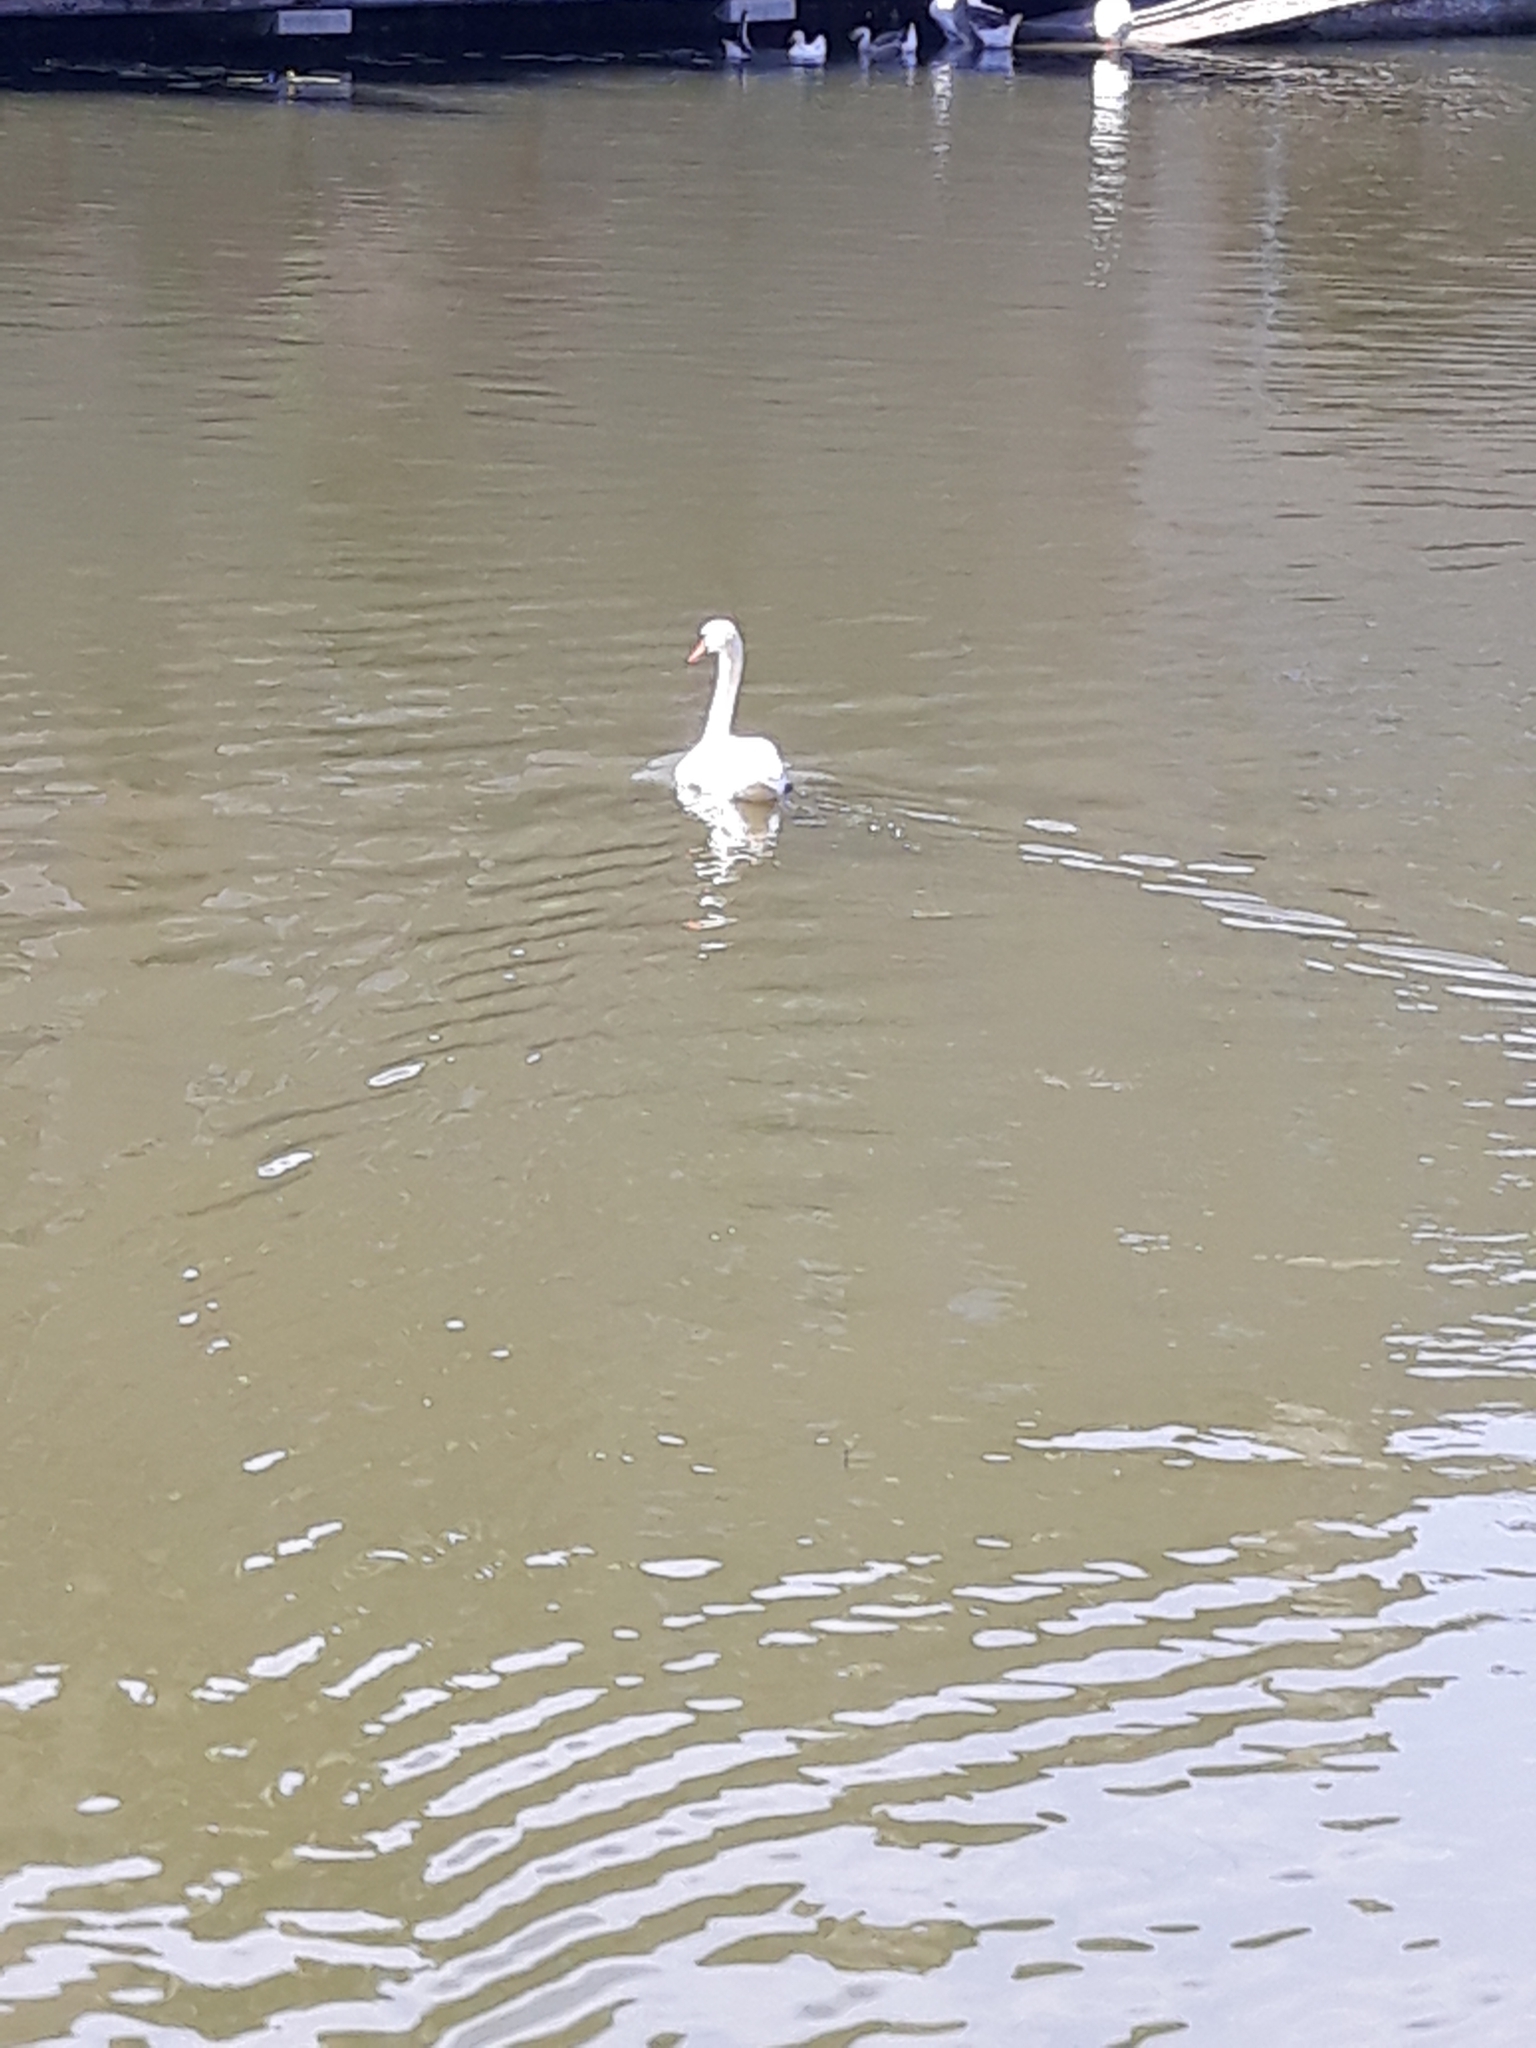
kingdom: Animalia
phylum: Chordata
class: Aves
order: Anseriformes
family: Anatidae
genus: Cygnus
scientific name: Cygnus olor
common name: Mute swan
